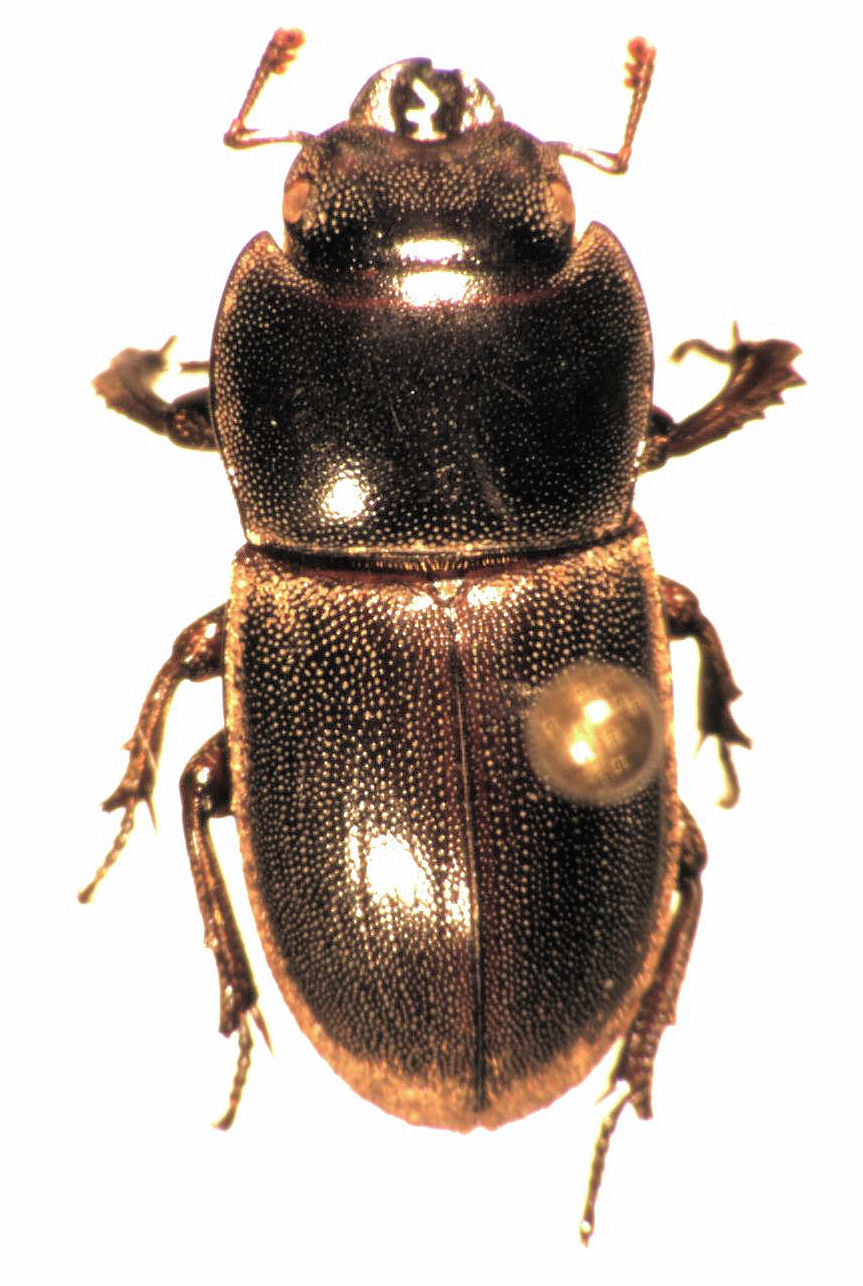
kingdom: Animalia
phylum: Arthropoda
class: Insecta
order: Coleoptera
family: Lucanidae
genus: Paralissotes
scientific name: Paralissotes mangonuiensis
